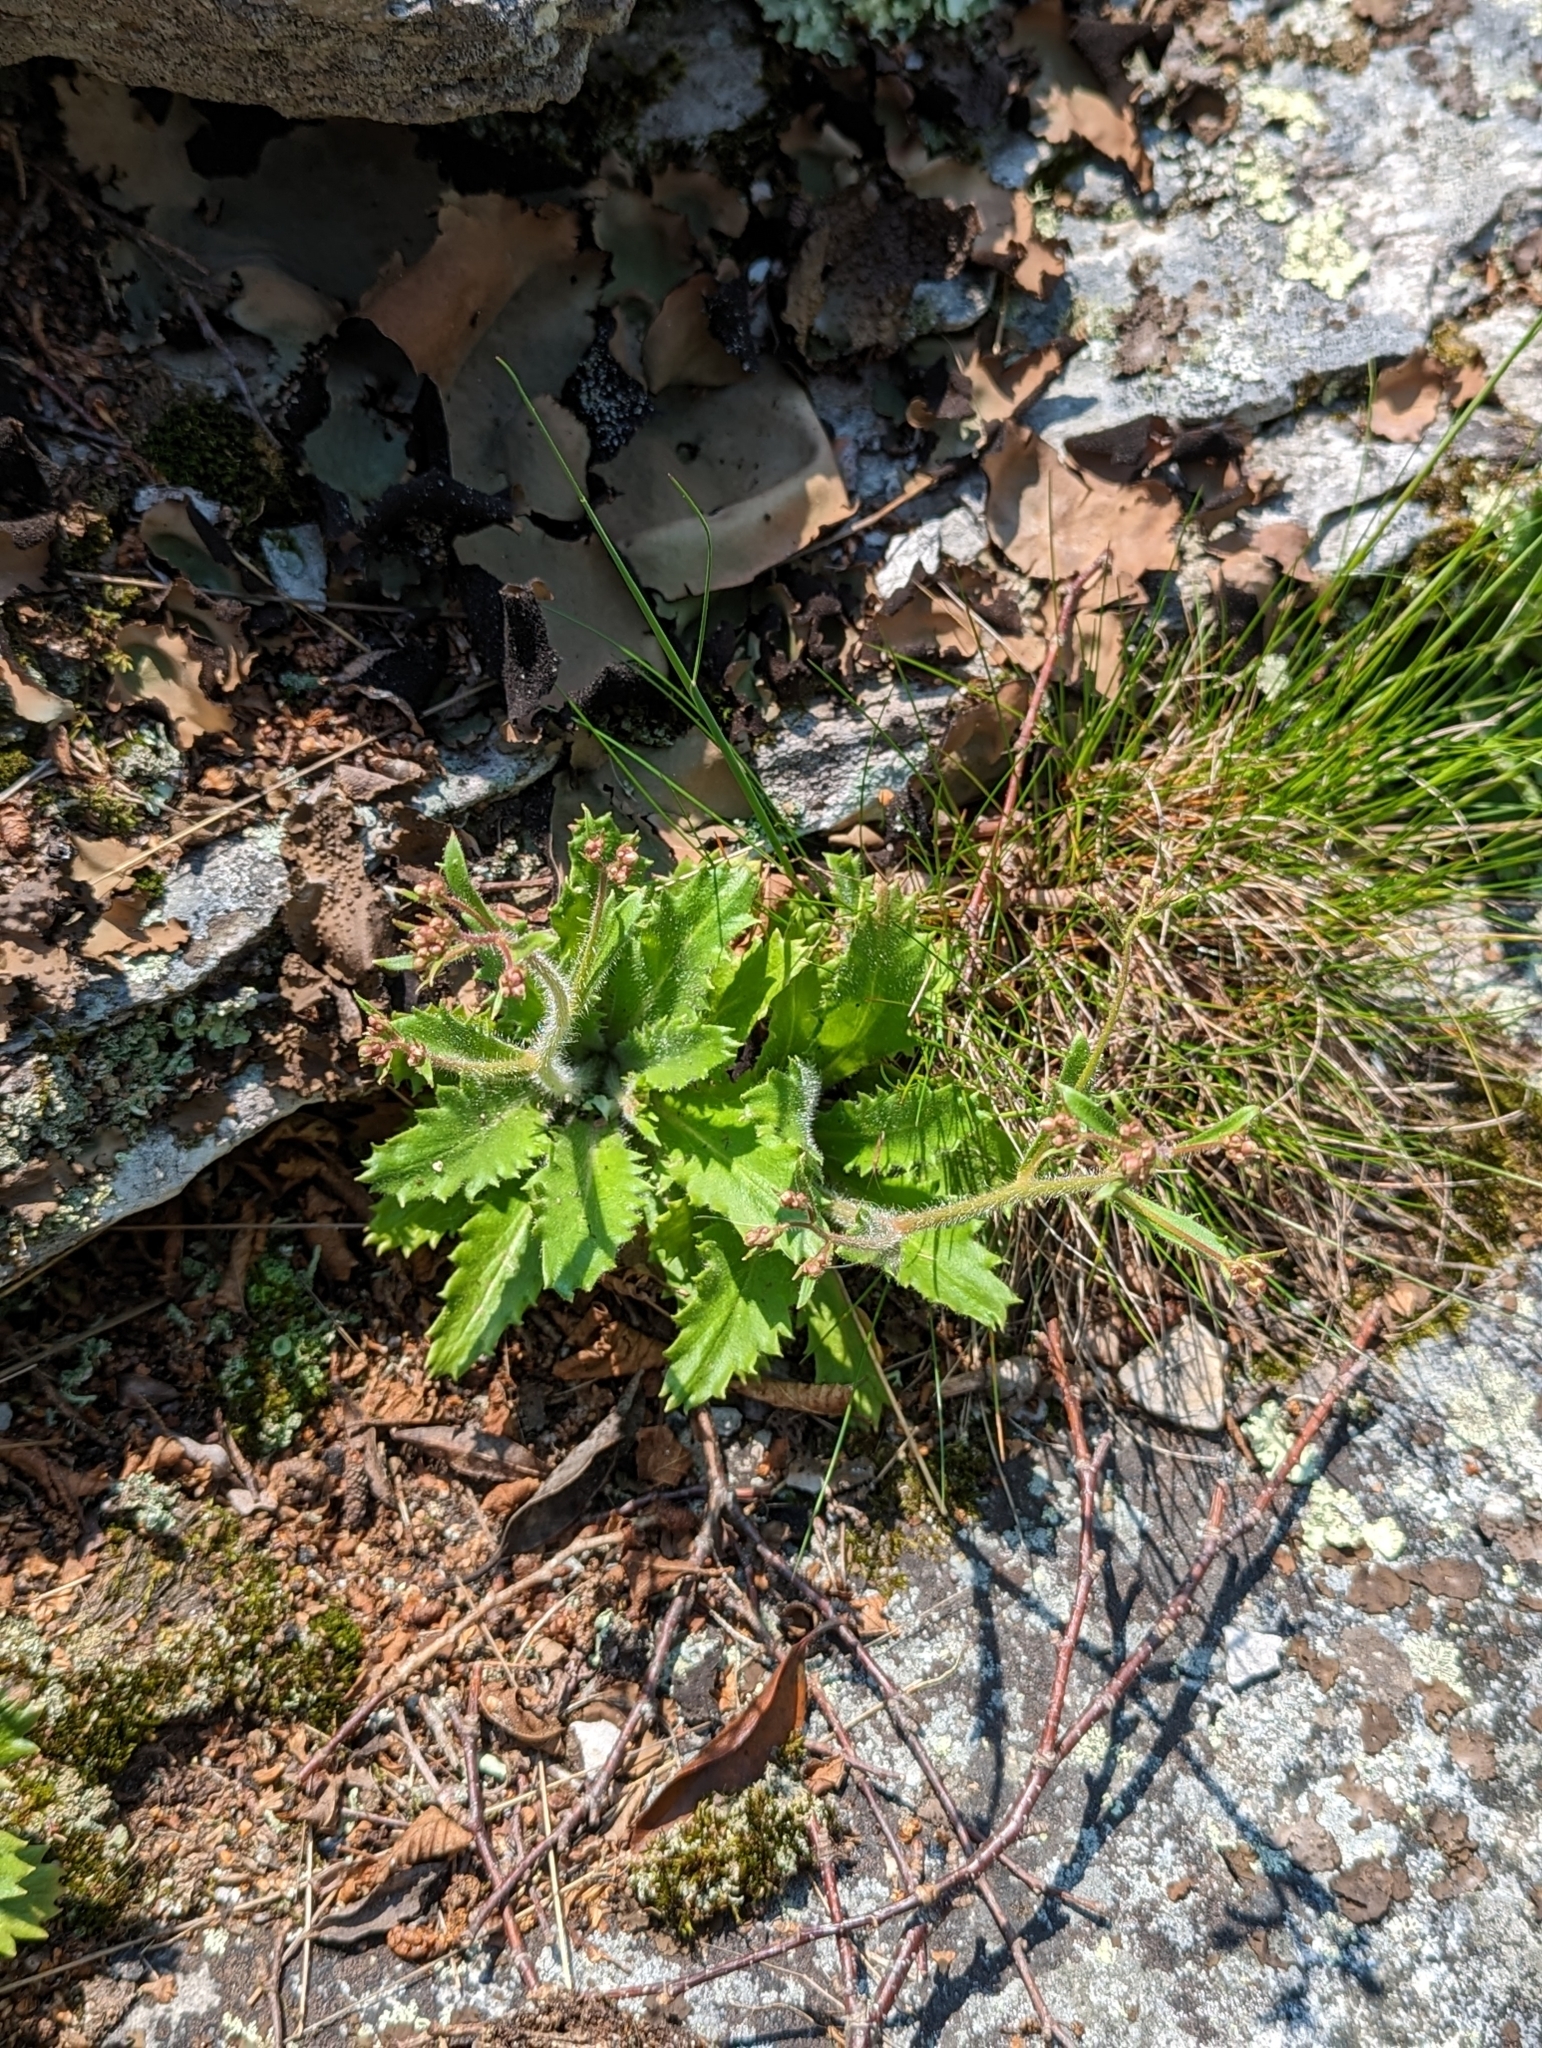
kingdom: Plantae
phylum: Tracheophyta
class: Magnoliopsida
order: Saxifragales
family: Saxifragaceae
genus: Micranthes
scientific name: Micranthes petiolaris
